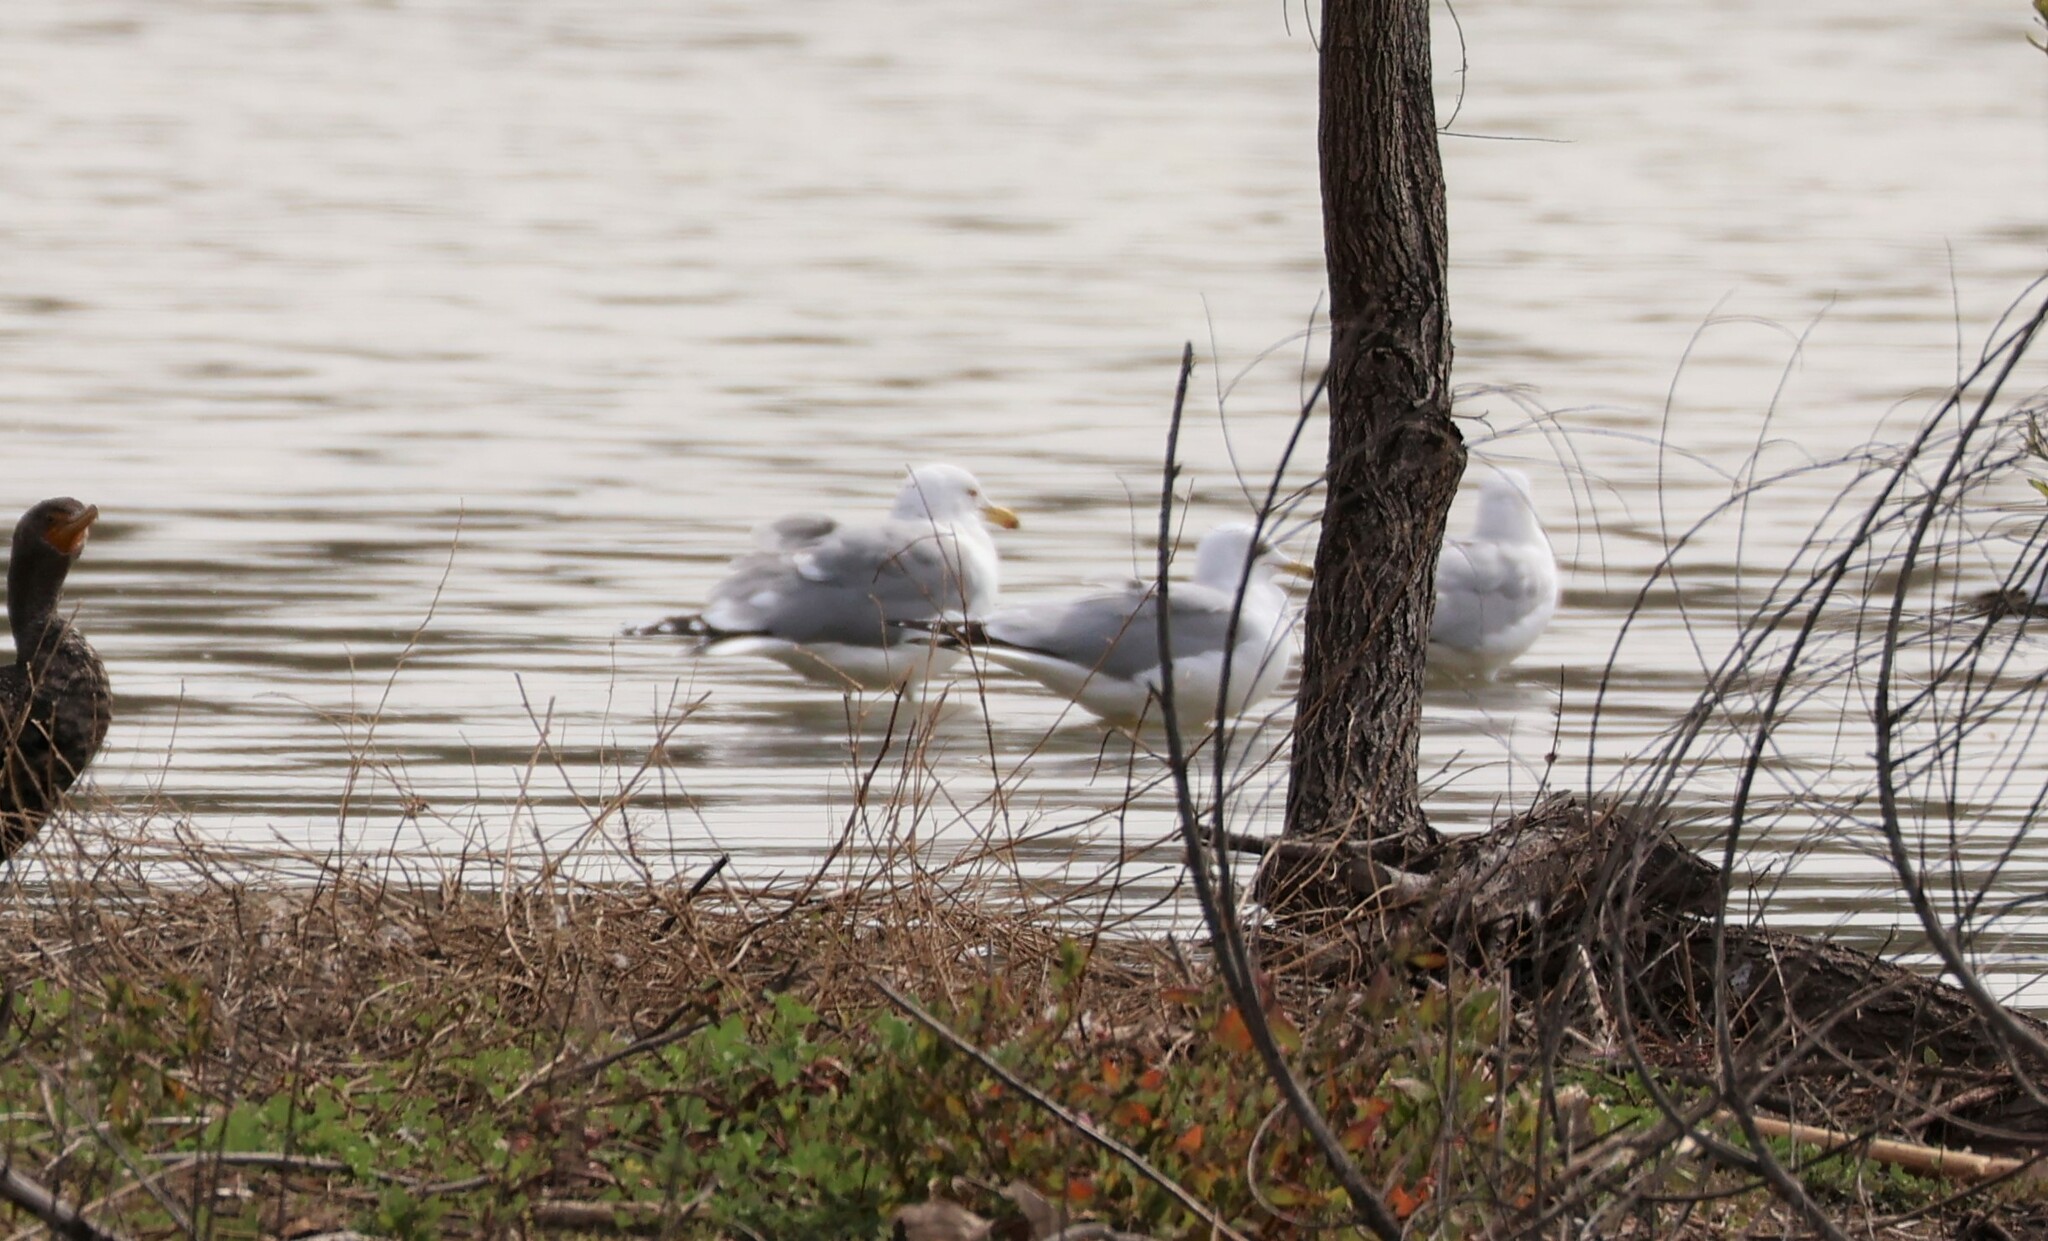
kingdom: Animalia
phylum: Chordata
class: Aves
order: Charadriiformes
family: Laridae
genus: Larus
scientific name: Larus californicus
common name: California gull
